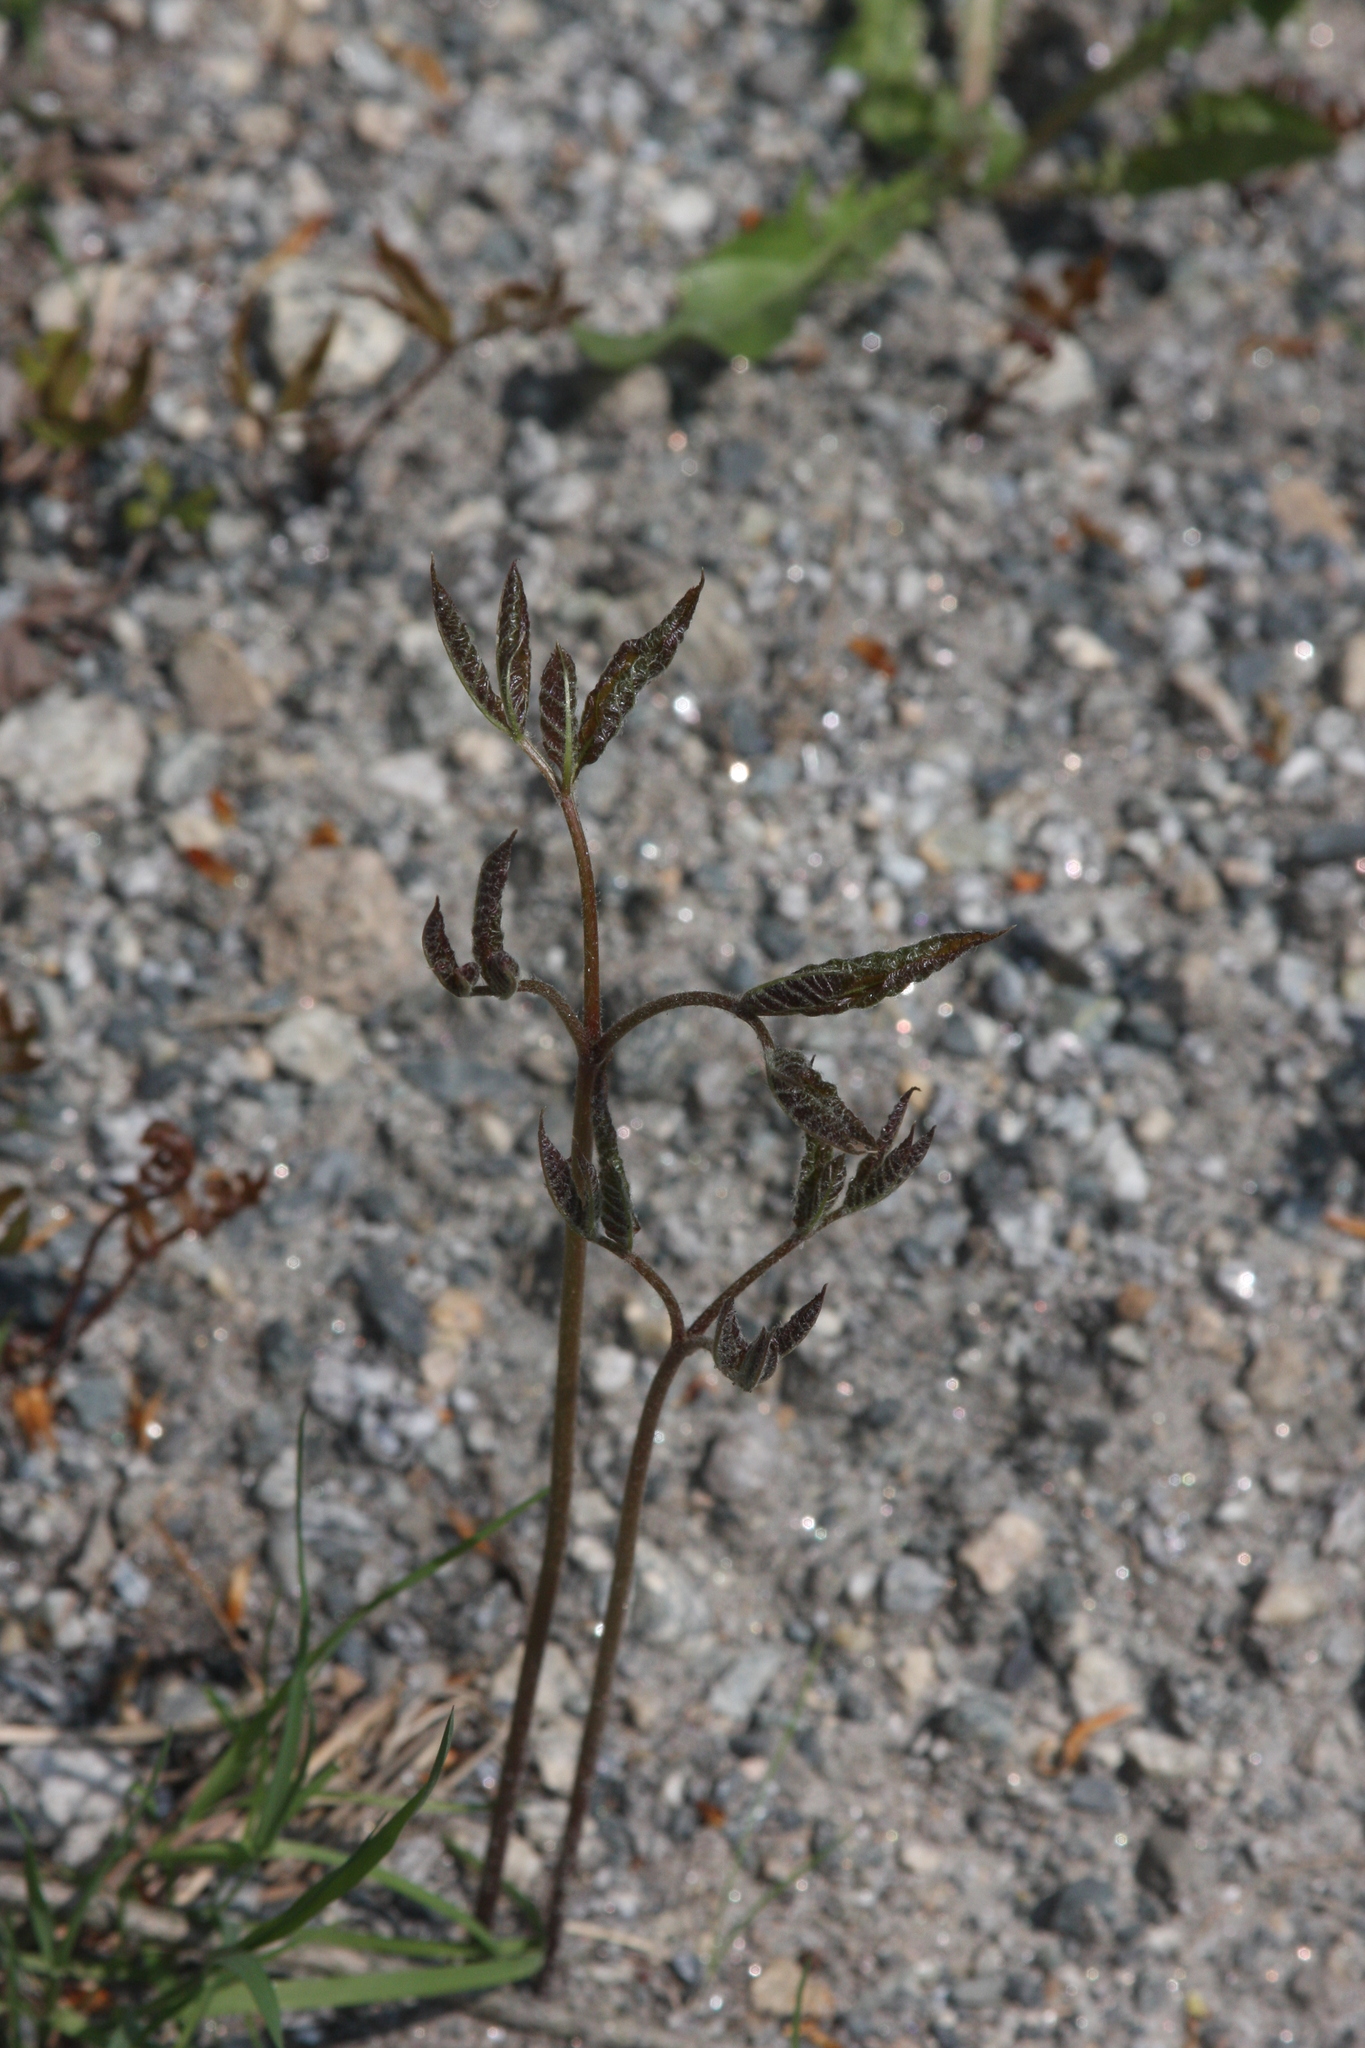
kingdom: Plantae
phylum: Tracheophyta
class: Magnoliopsida
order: Apiales
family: Araliaceae
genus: Aralia
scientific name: Aralia nudicaulis
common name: Wild sarsaparilla
